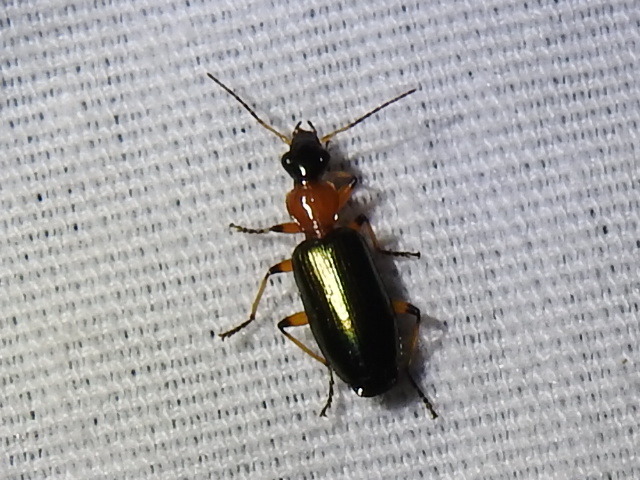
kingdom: Animalia
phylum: Arthropoda
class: Insecta
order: Coleoptera
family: Carabidae
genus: Calleida
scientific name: Calleida cordicollis
